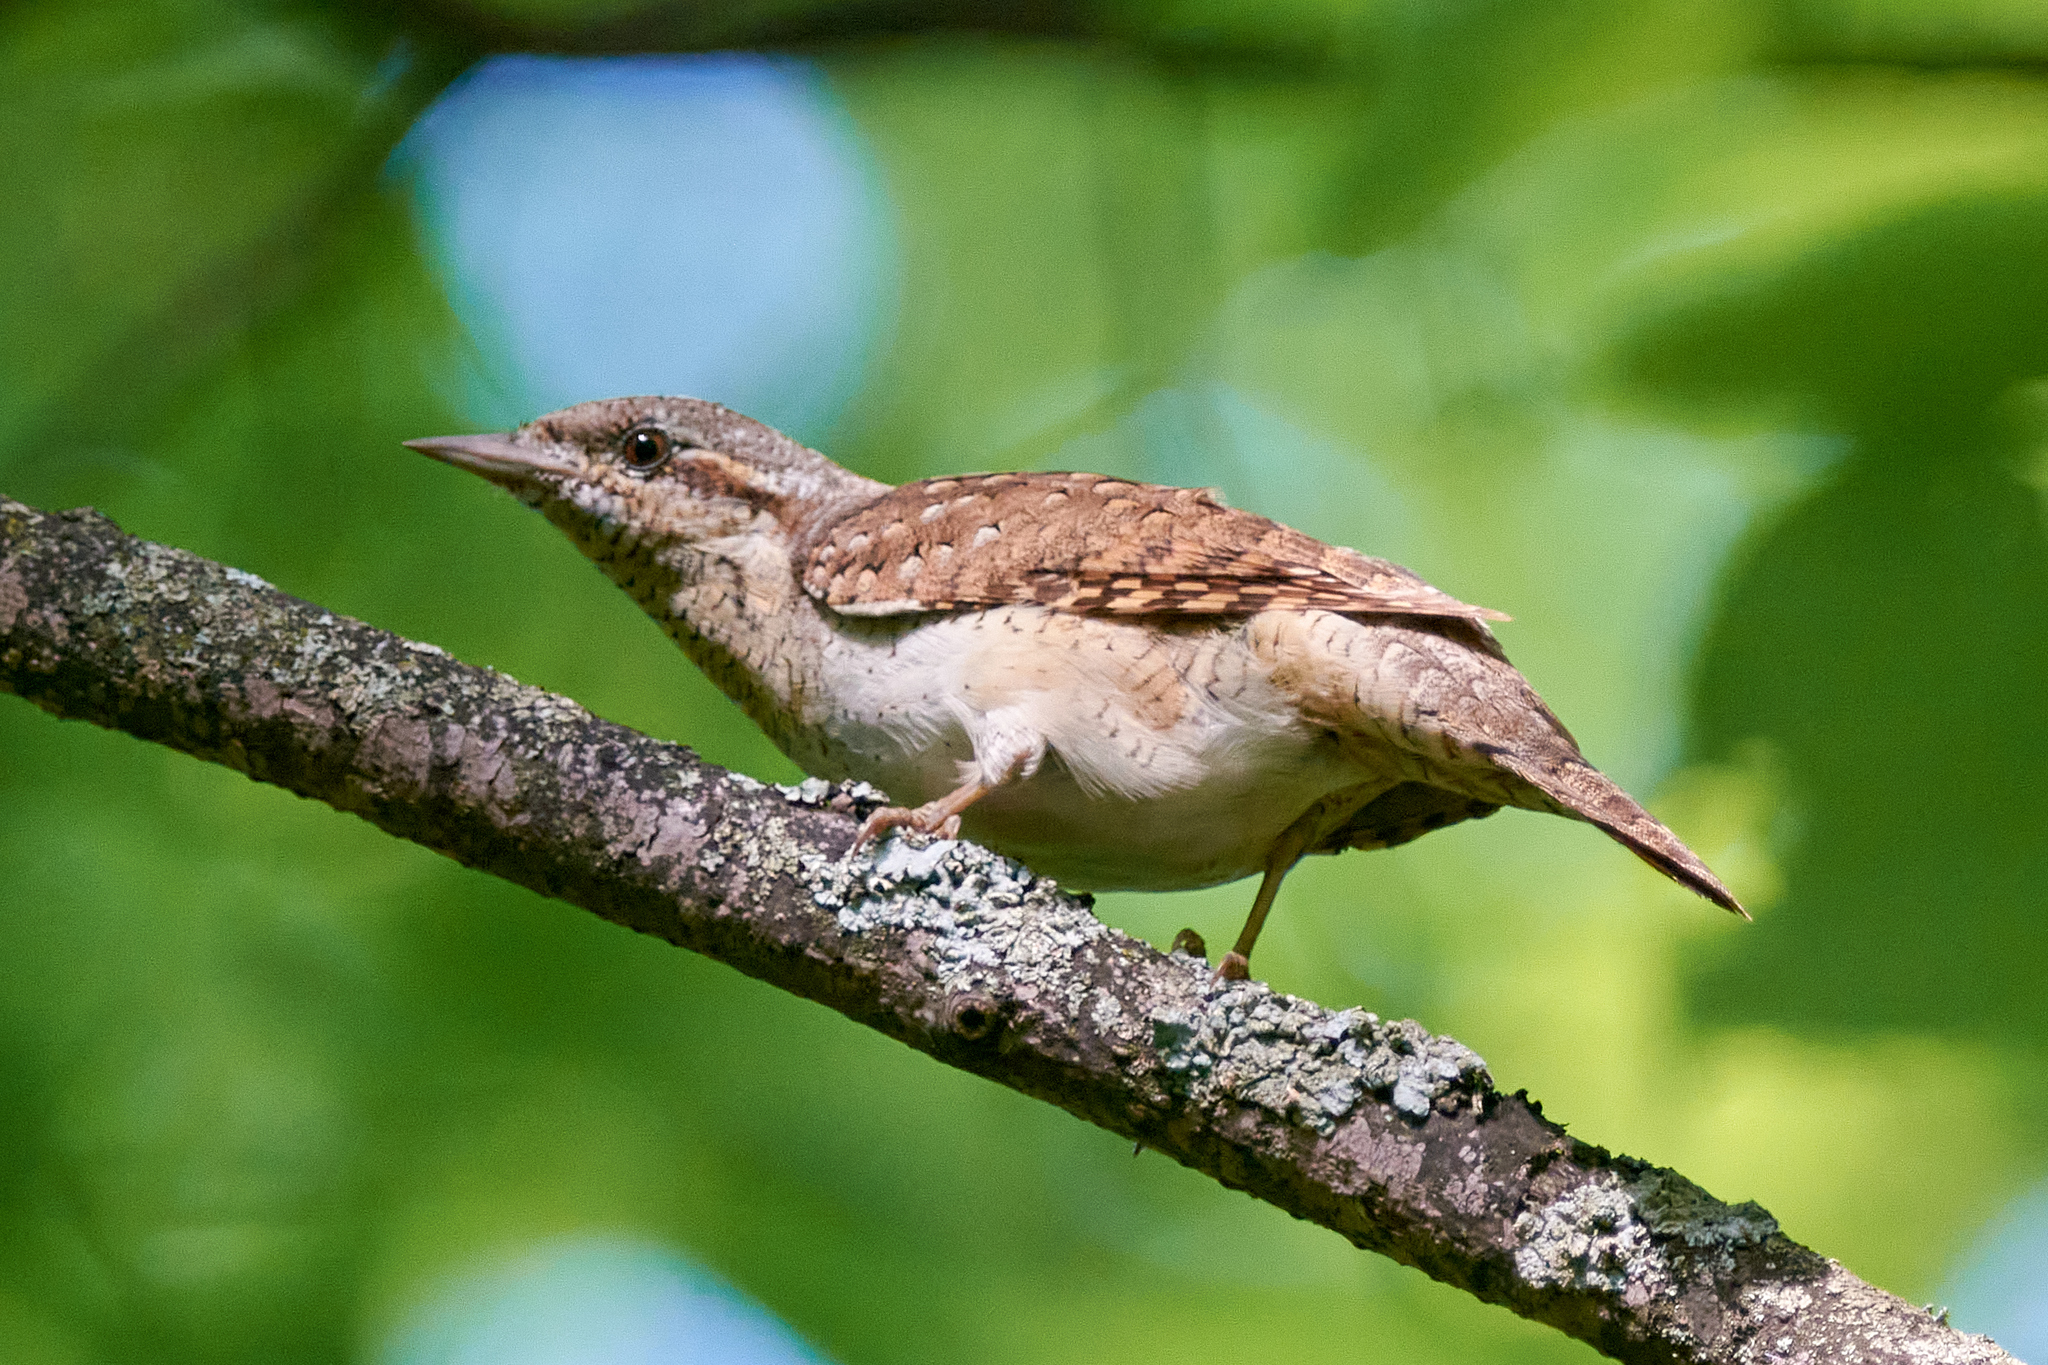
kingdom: Animalia
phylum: Chordata
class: Aves
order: Piciformes
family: Picidae
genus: Jynx
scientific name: Jynx torquilla
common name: Eurasian wryneck
